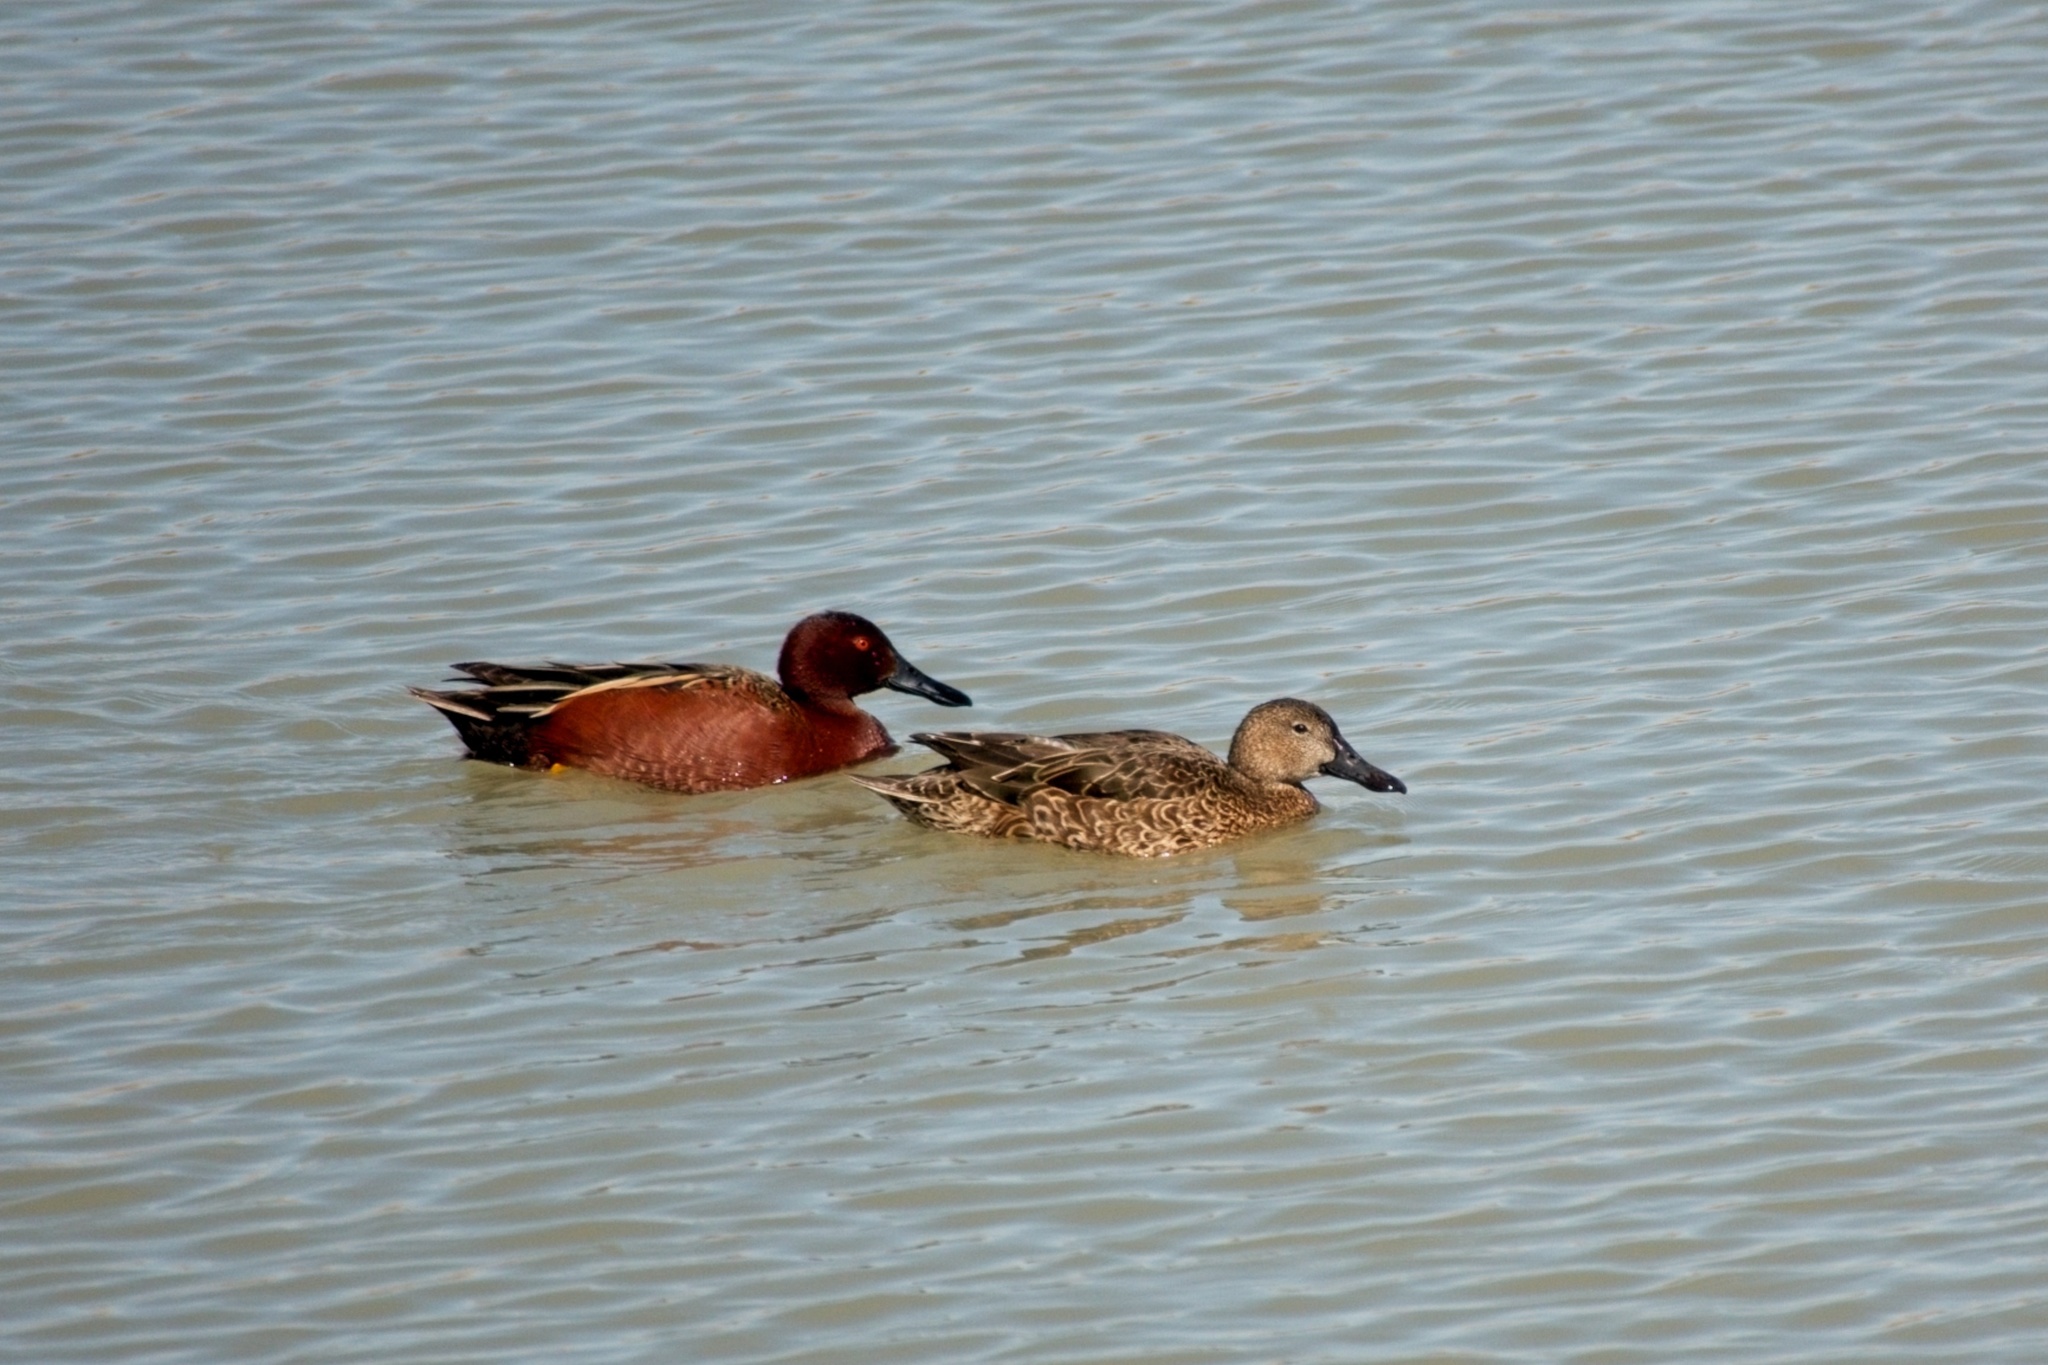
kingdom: Animalia
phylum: Chordata
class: Aves
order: Anseriformes
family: Anatidae
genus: Spatula
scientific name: Spatula cyanoptera
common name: Cinnamon teal
